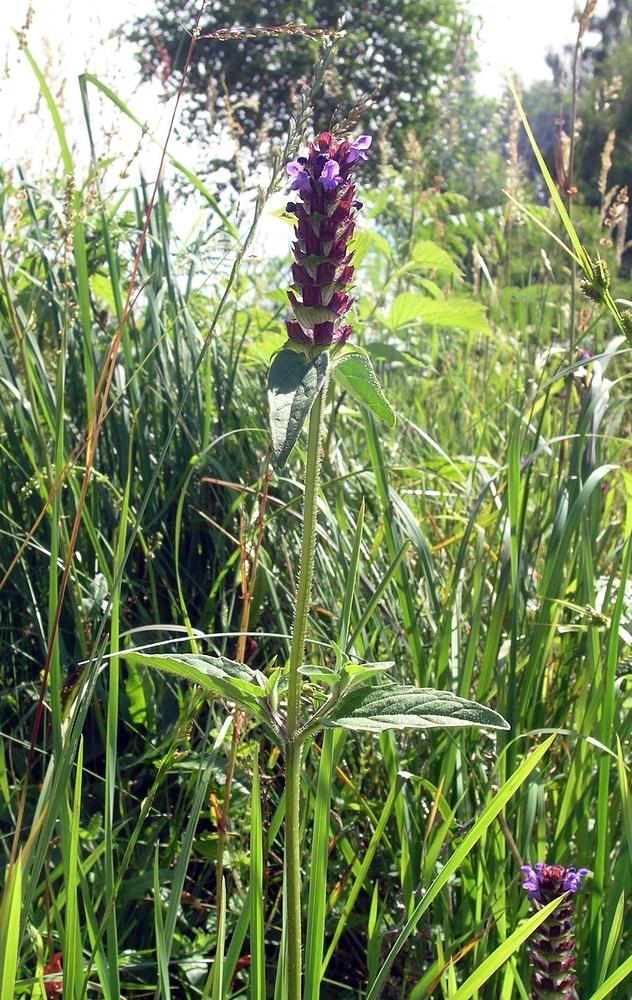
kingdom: Plantae
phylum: Tracheophyta
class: Magnoliopsida
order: Lamiales
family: Lamiaceae
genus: Prunella
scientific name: Prunella vulgaris
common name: Heal-all
